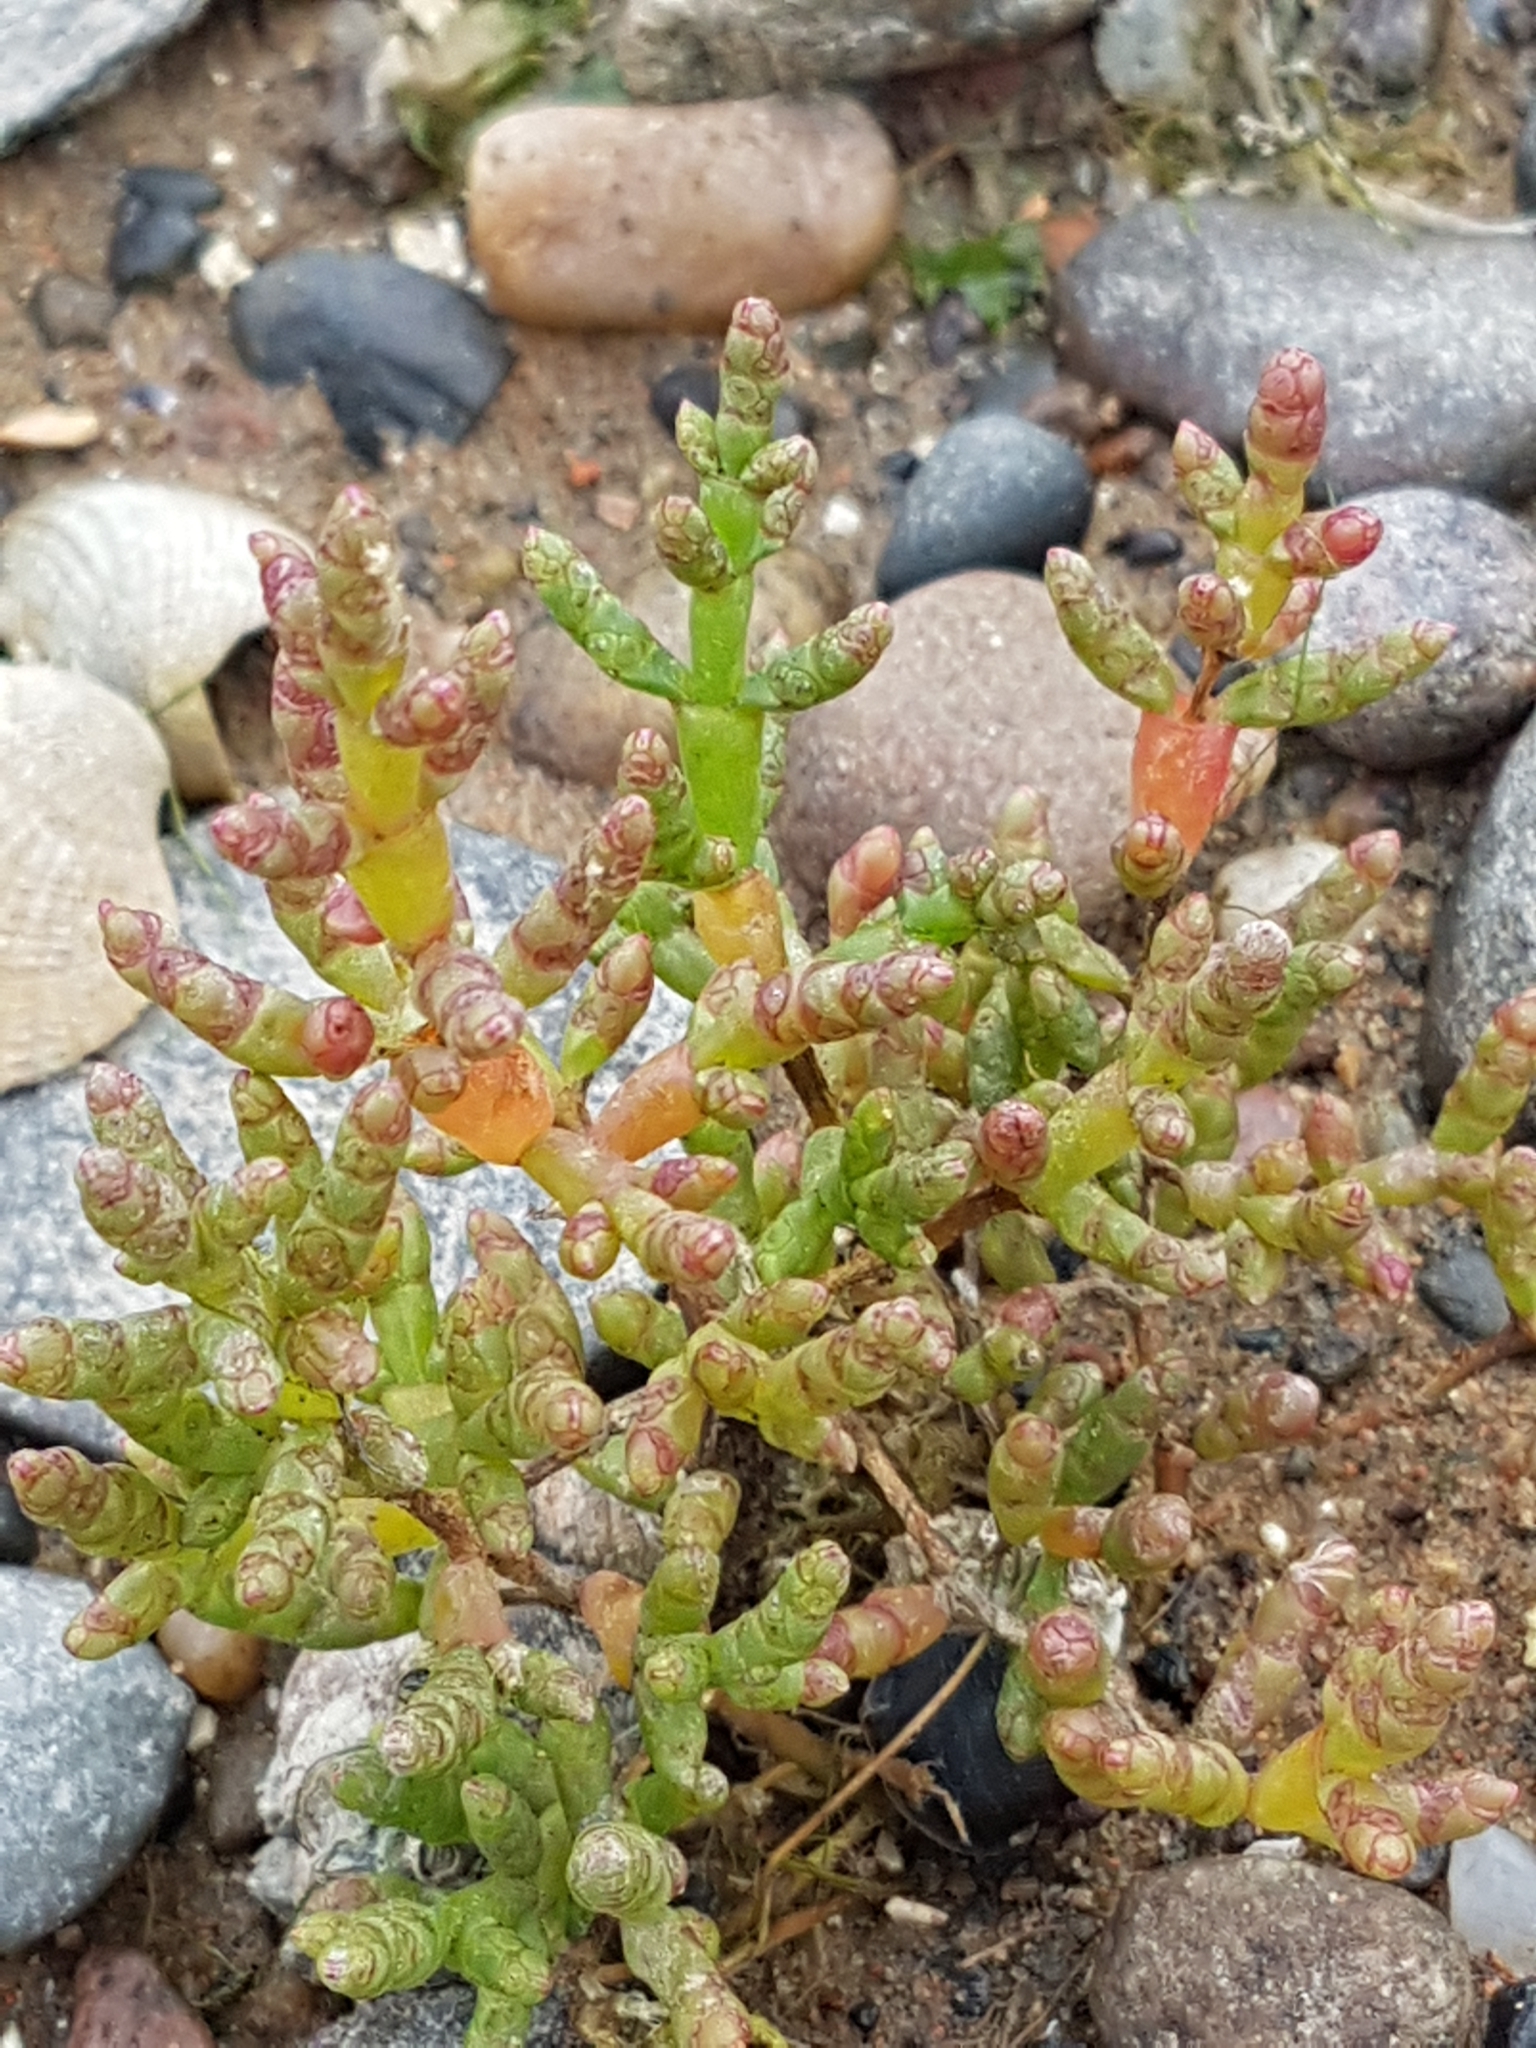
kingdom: Plantae
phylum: Tracheophyta
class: Magnoliopsida
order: Caryophyllales
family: Amaranthaceae
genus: Salicornia
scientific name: Salicornia europaea
